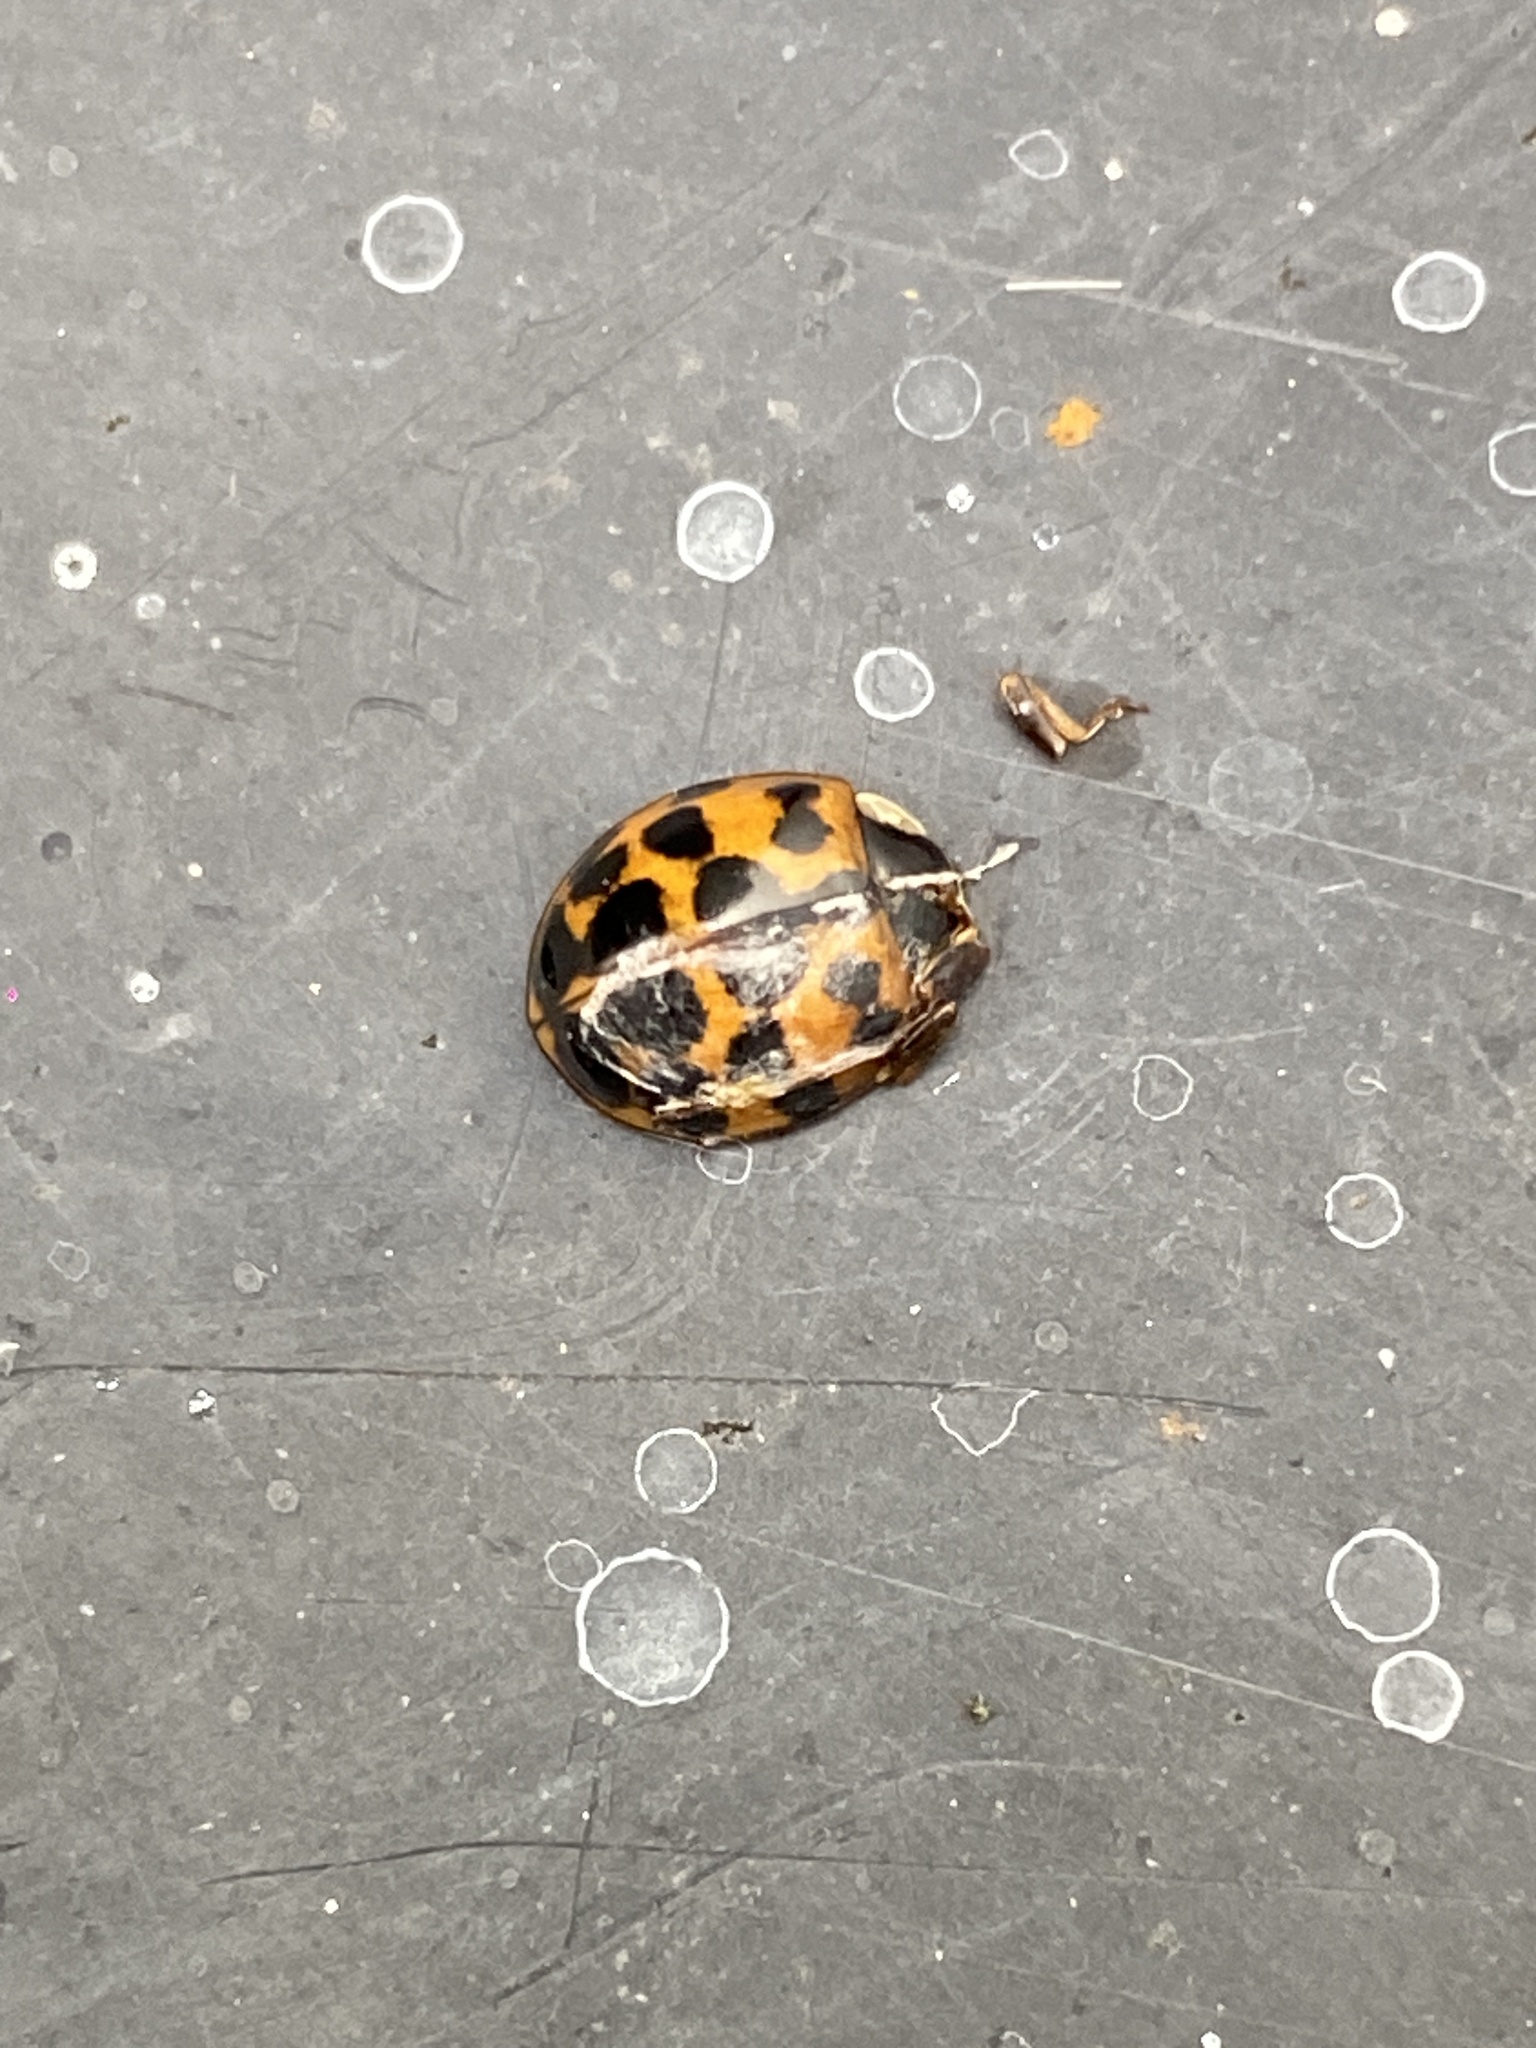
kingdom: Animalia
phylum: Arthropoda
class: Insecta
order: Coleoptera
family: Coccinellidae
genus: Harmonia
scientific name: Harmonia axyridis
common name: Harlequin ladybird
